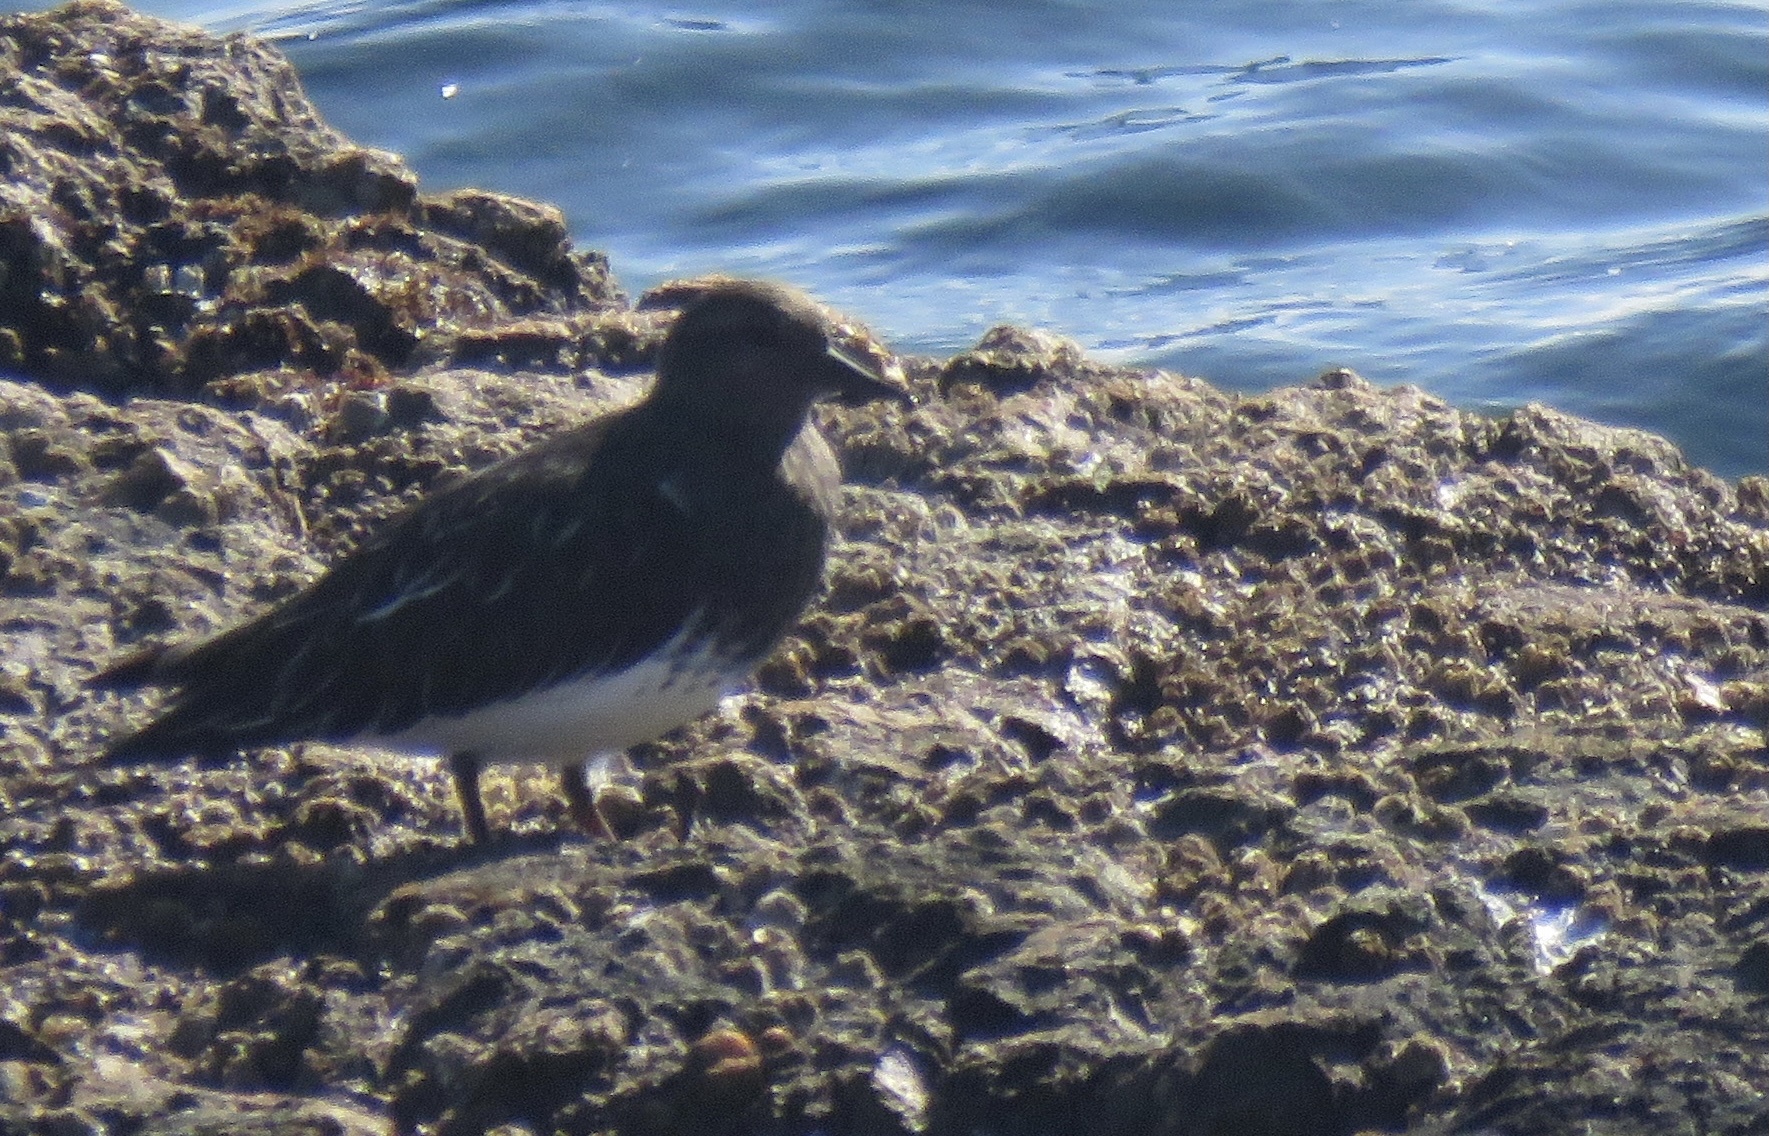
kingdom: Animalia
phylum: Chordata
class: Aves
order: Charadriiformes
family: Scolopacidae
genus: Arenaria
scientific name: Arenaria melanocephala
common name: Black turnstone
